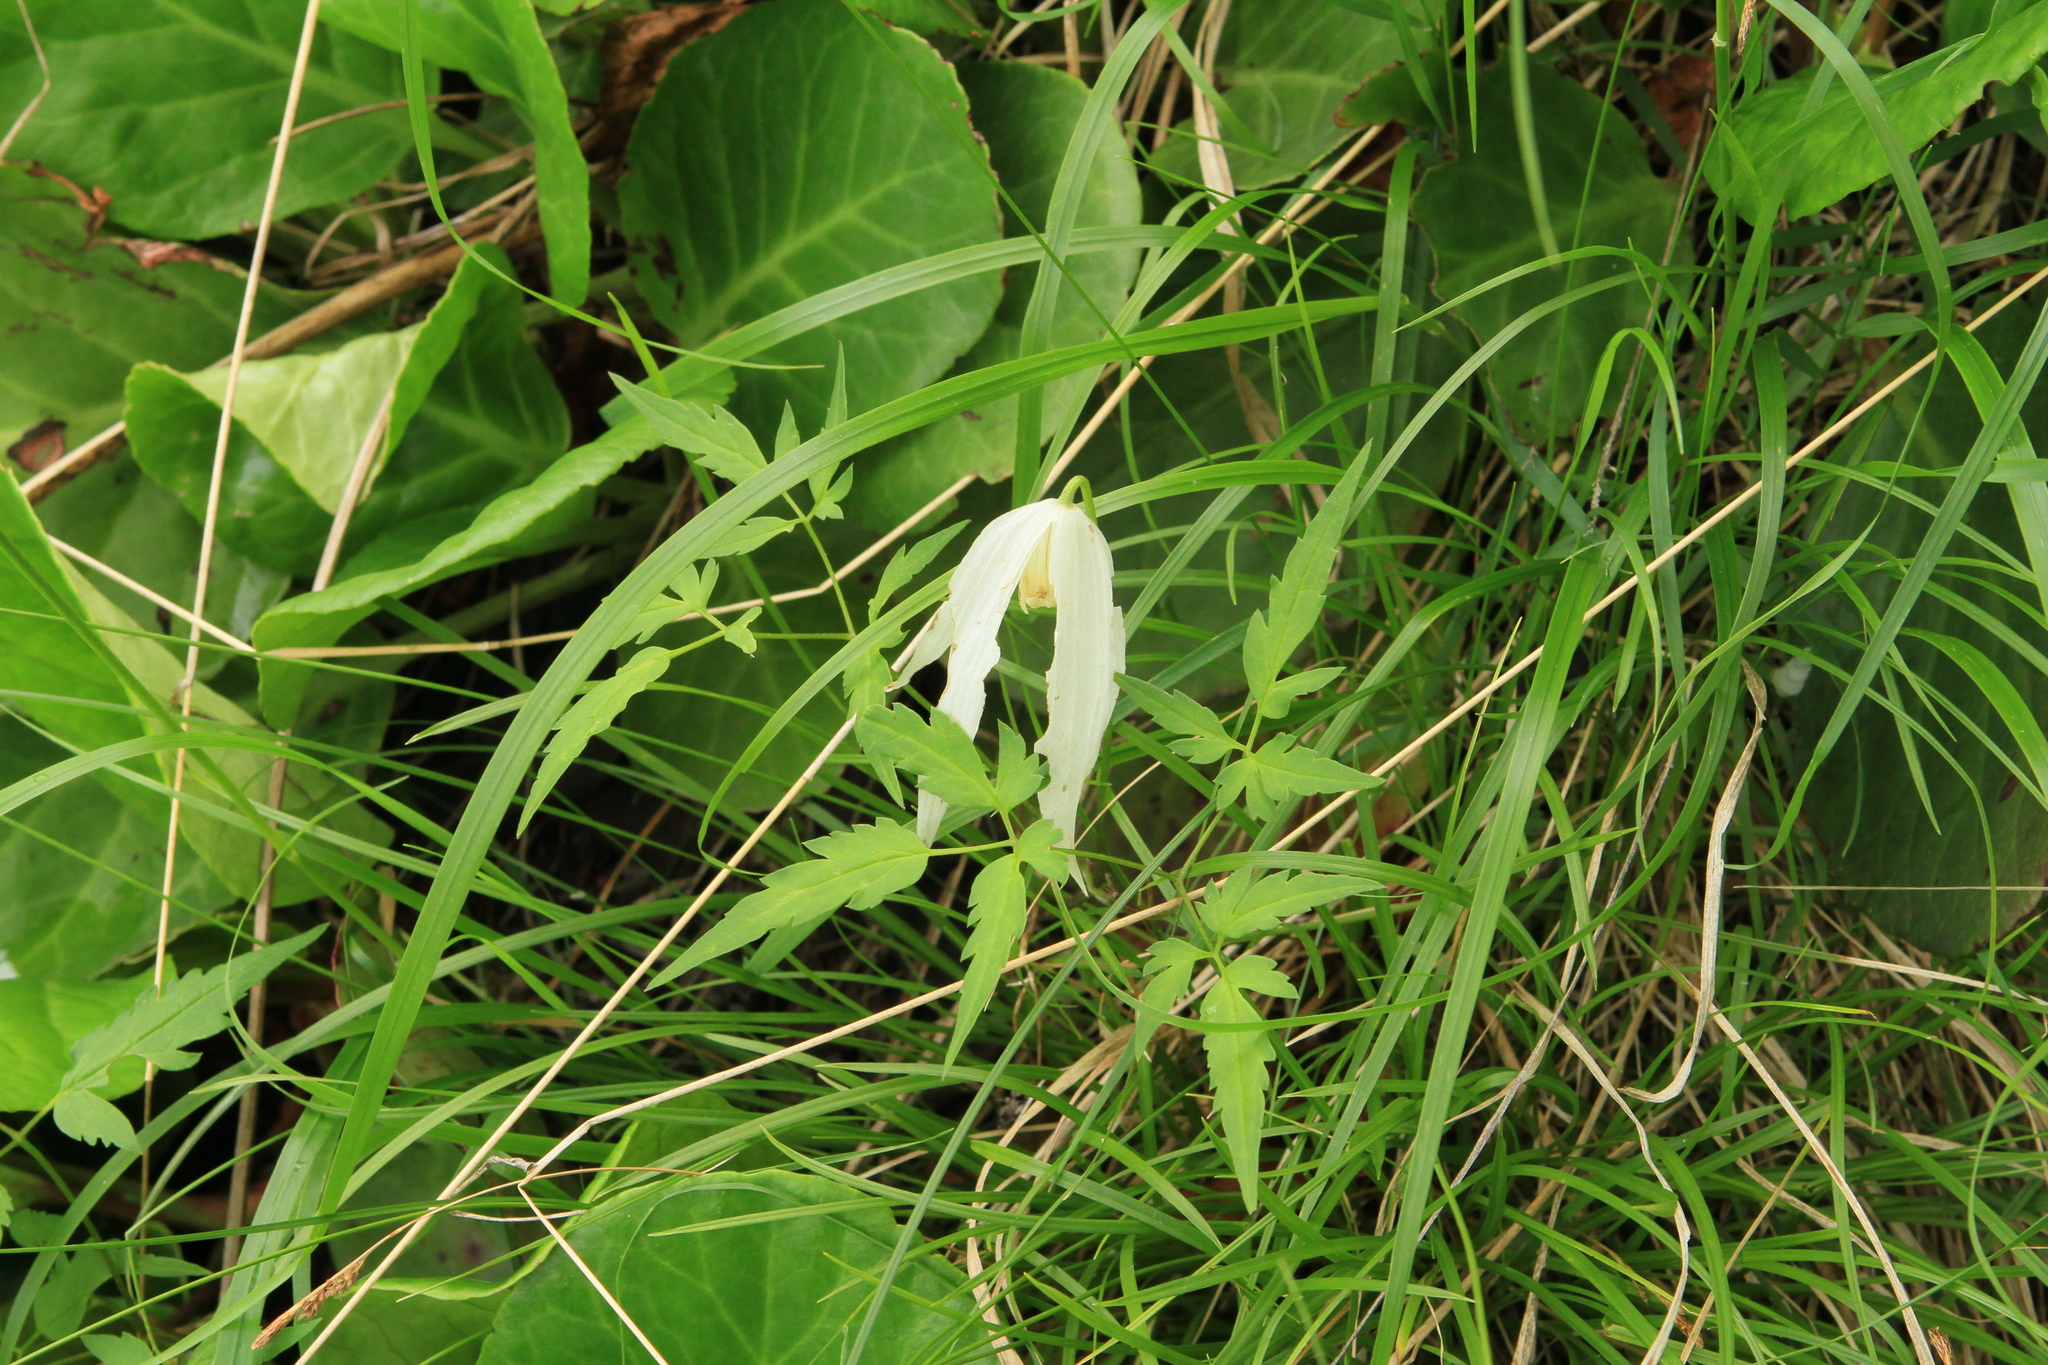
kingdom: Plantae
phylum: Tracheophyta
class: Magnoliopsida
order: Ranunculales
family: Ranunculaceae
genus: Clematis
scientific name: Clematis sibirica
